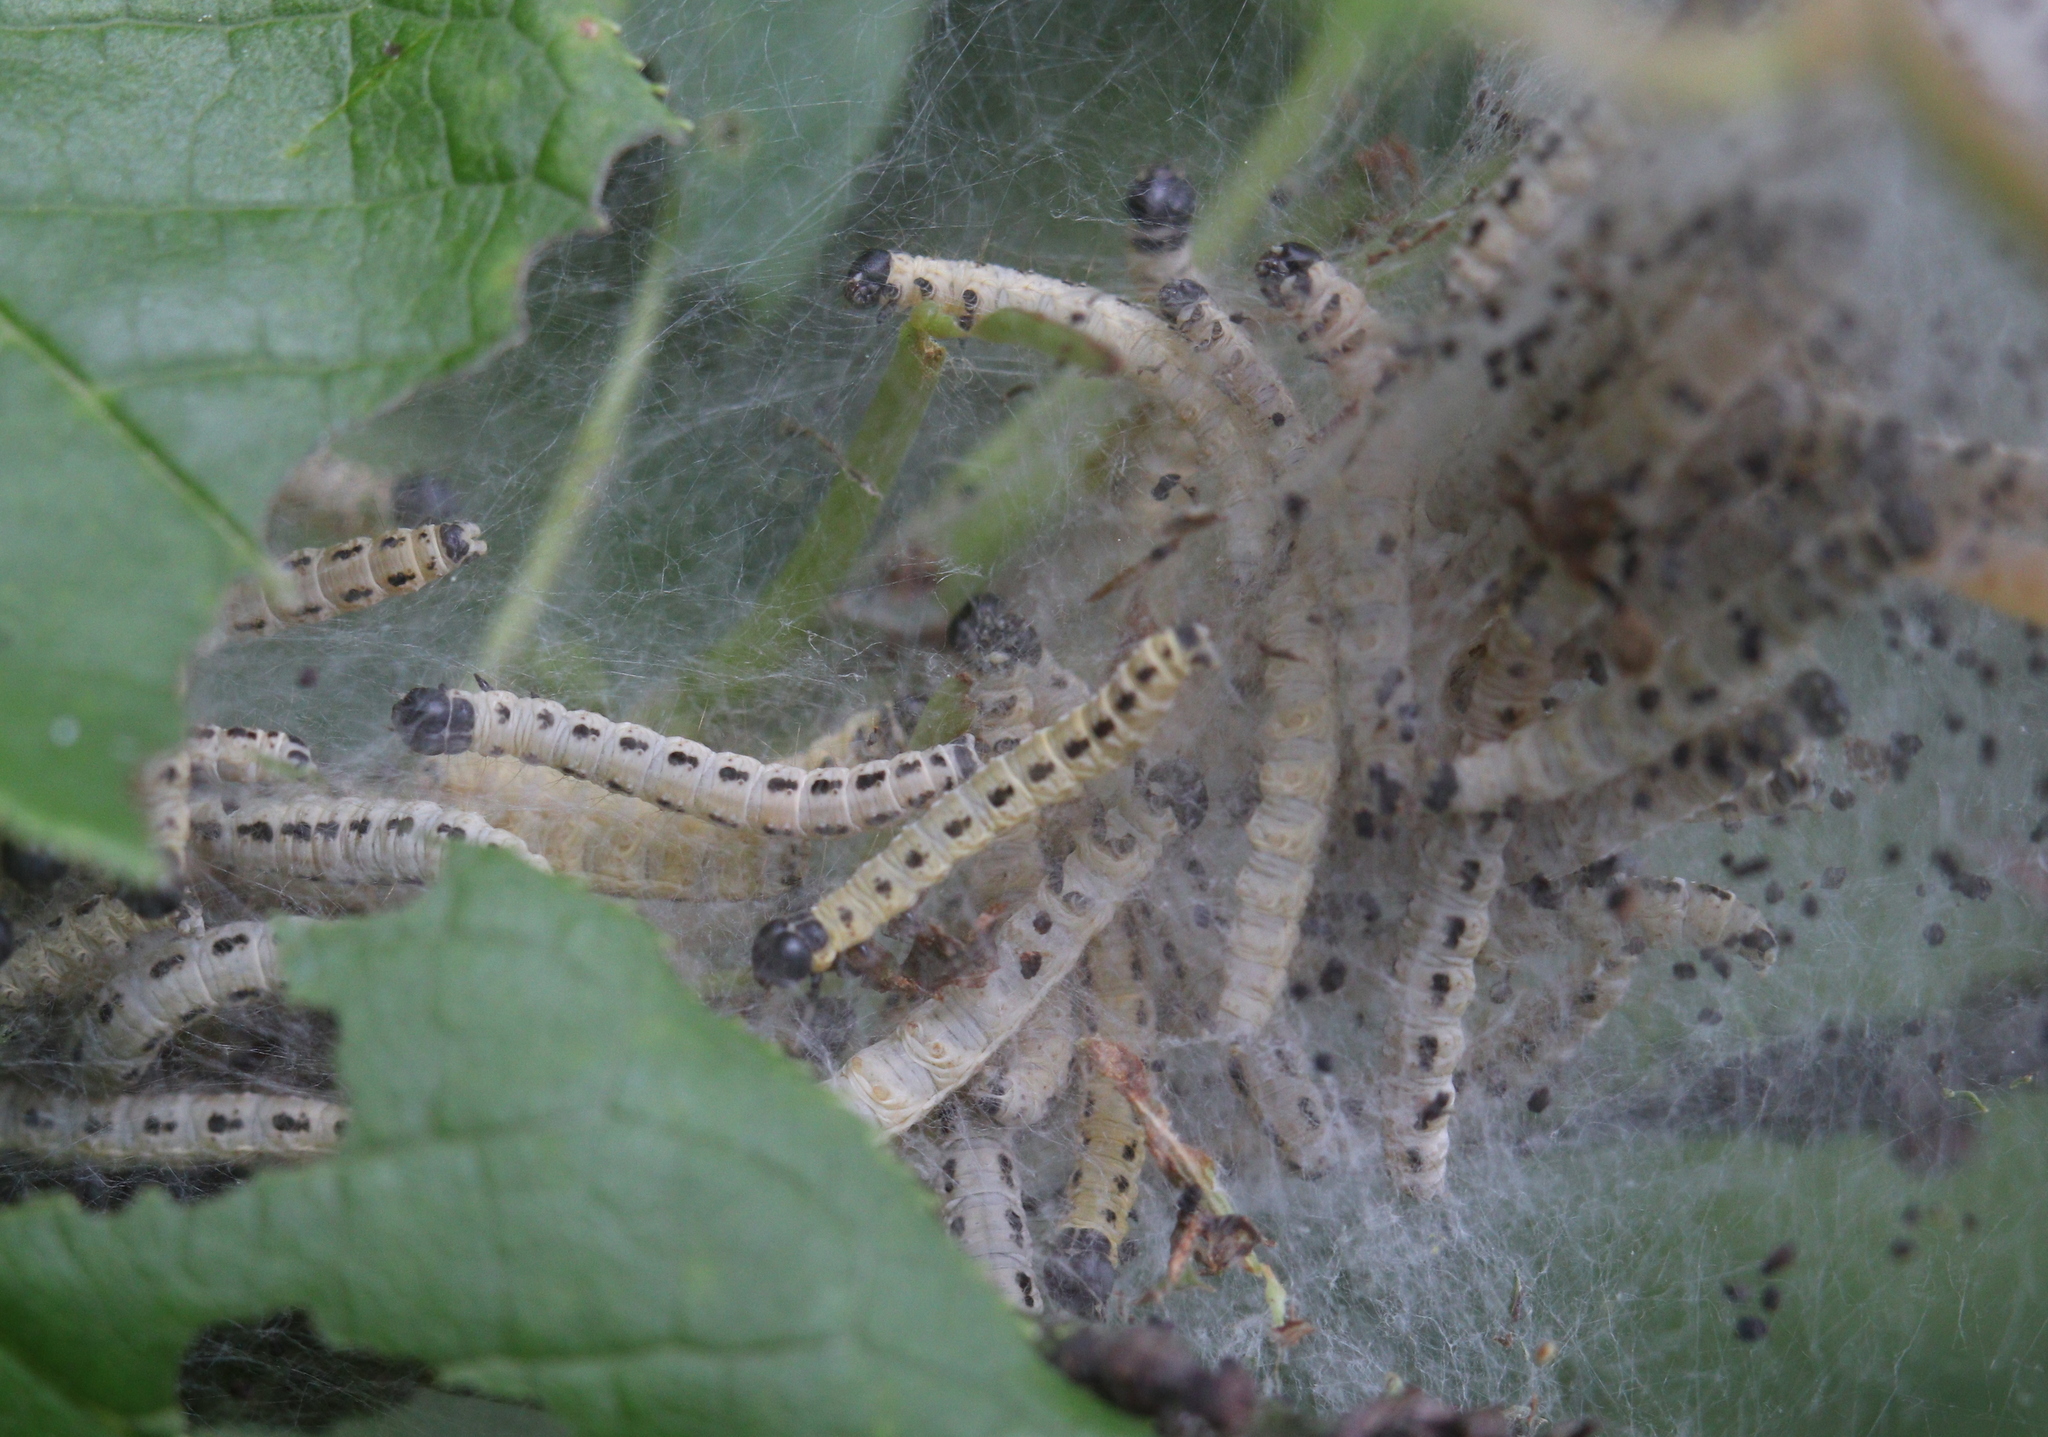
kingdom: Animalia
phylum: Arthropoda
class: Insecta
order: Lepidoptera
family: Yponomeutidae
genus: Yponomeuta
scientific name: Yponomeuta evonymella
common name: Bird-cherry ermine
